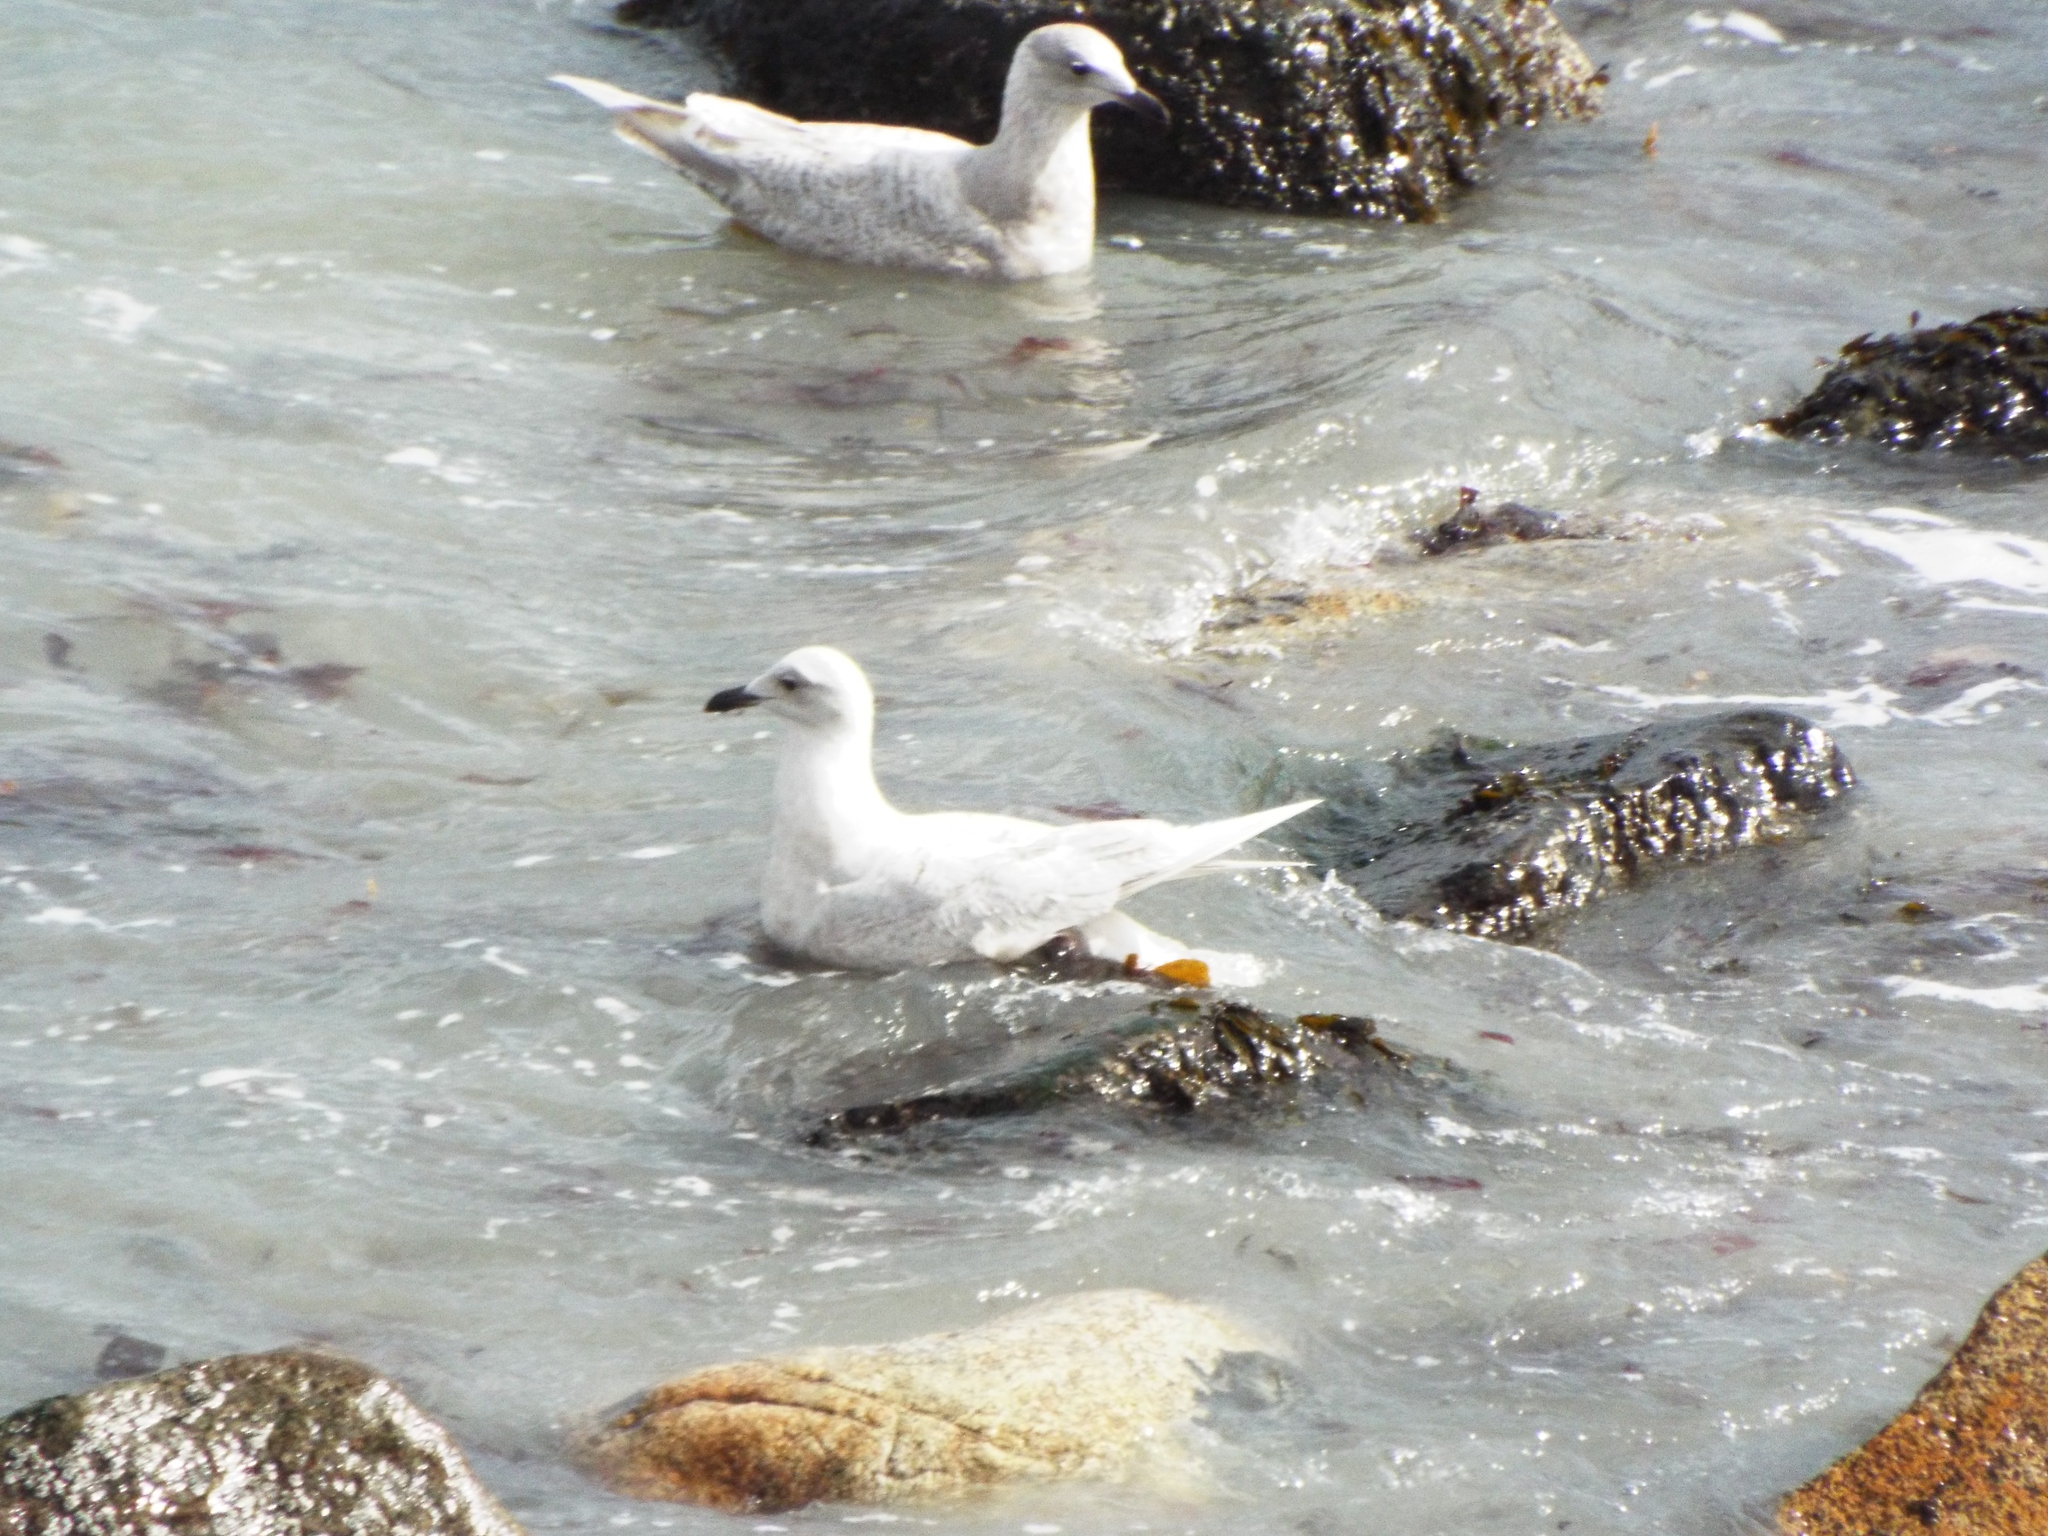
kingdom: Animalia
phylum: Chordata
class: Aves
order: Charadriiformes
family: Laridae
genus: Larus
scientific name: Larus glaucoides
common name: Iceland gull
